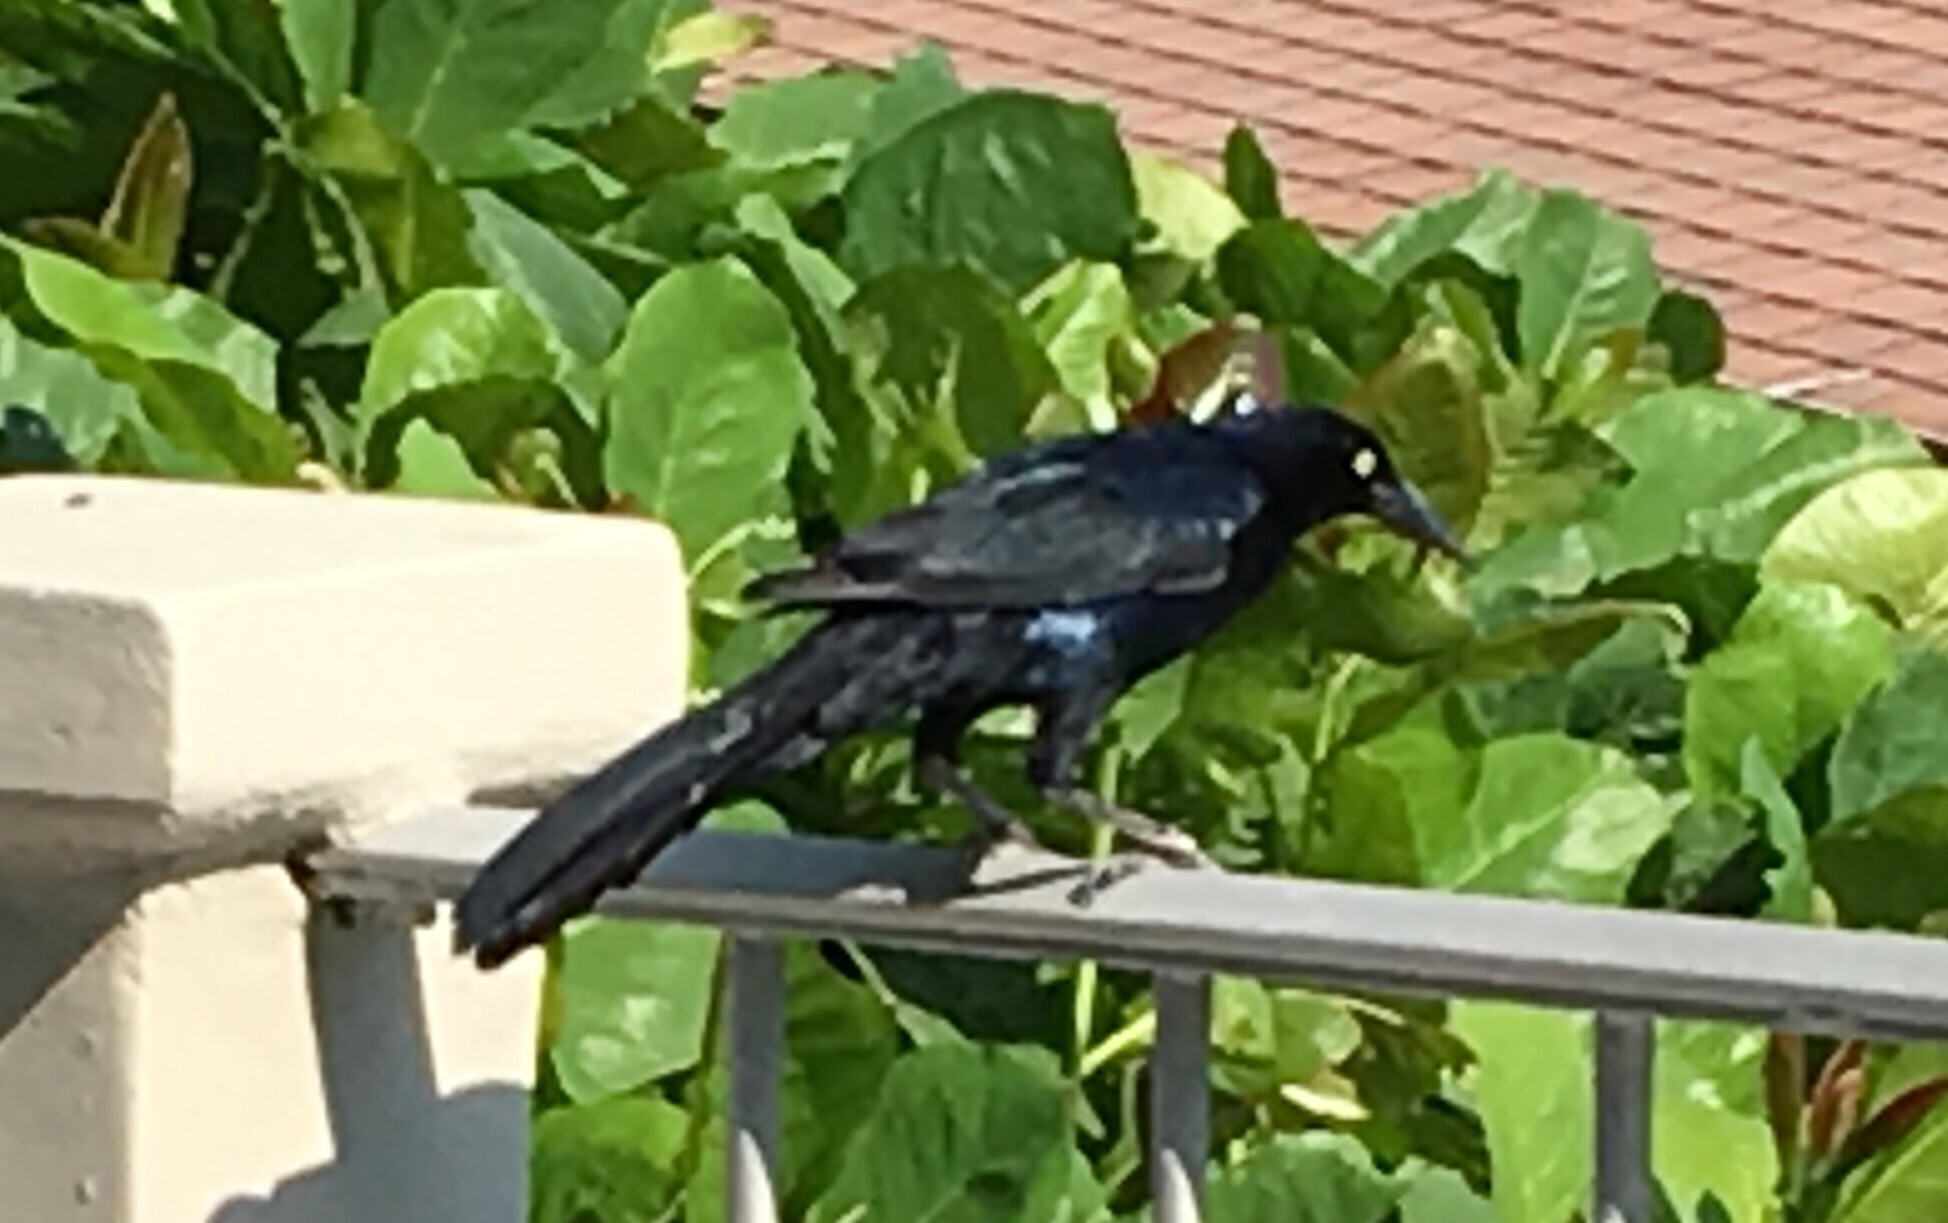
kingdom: Animalia
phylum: Chordata
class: Aves
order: Passeriformes
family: Icteridae
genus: Quiscalus
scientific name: Quiscalus mexicanus
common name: Great-tailed grackle
